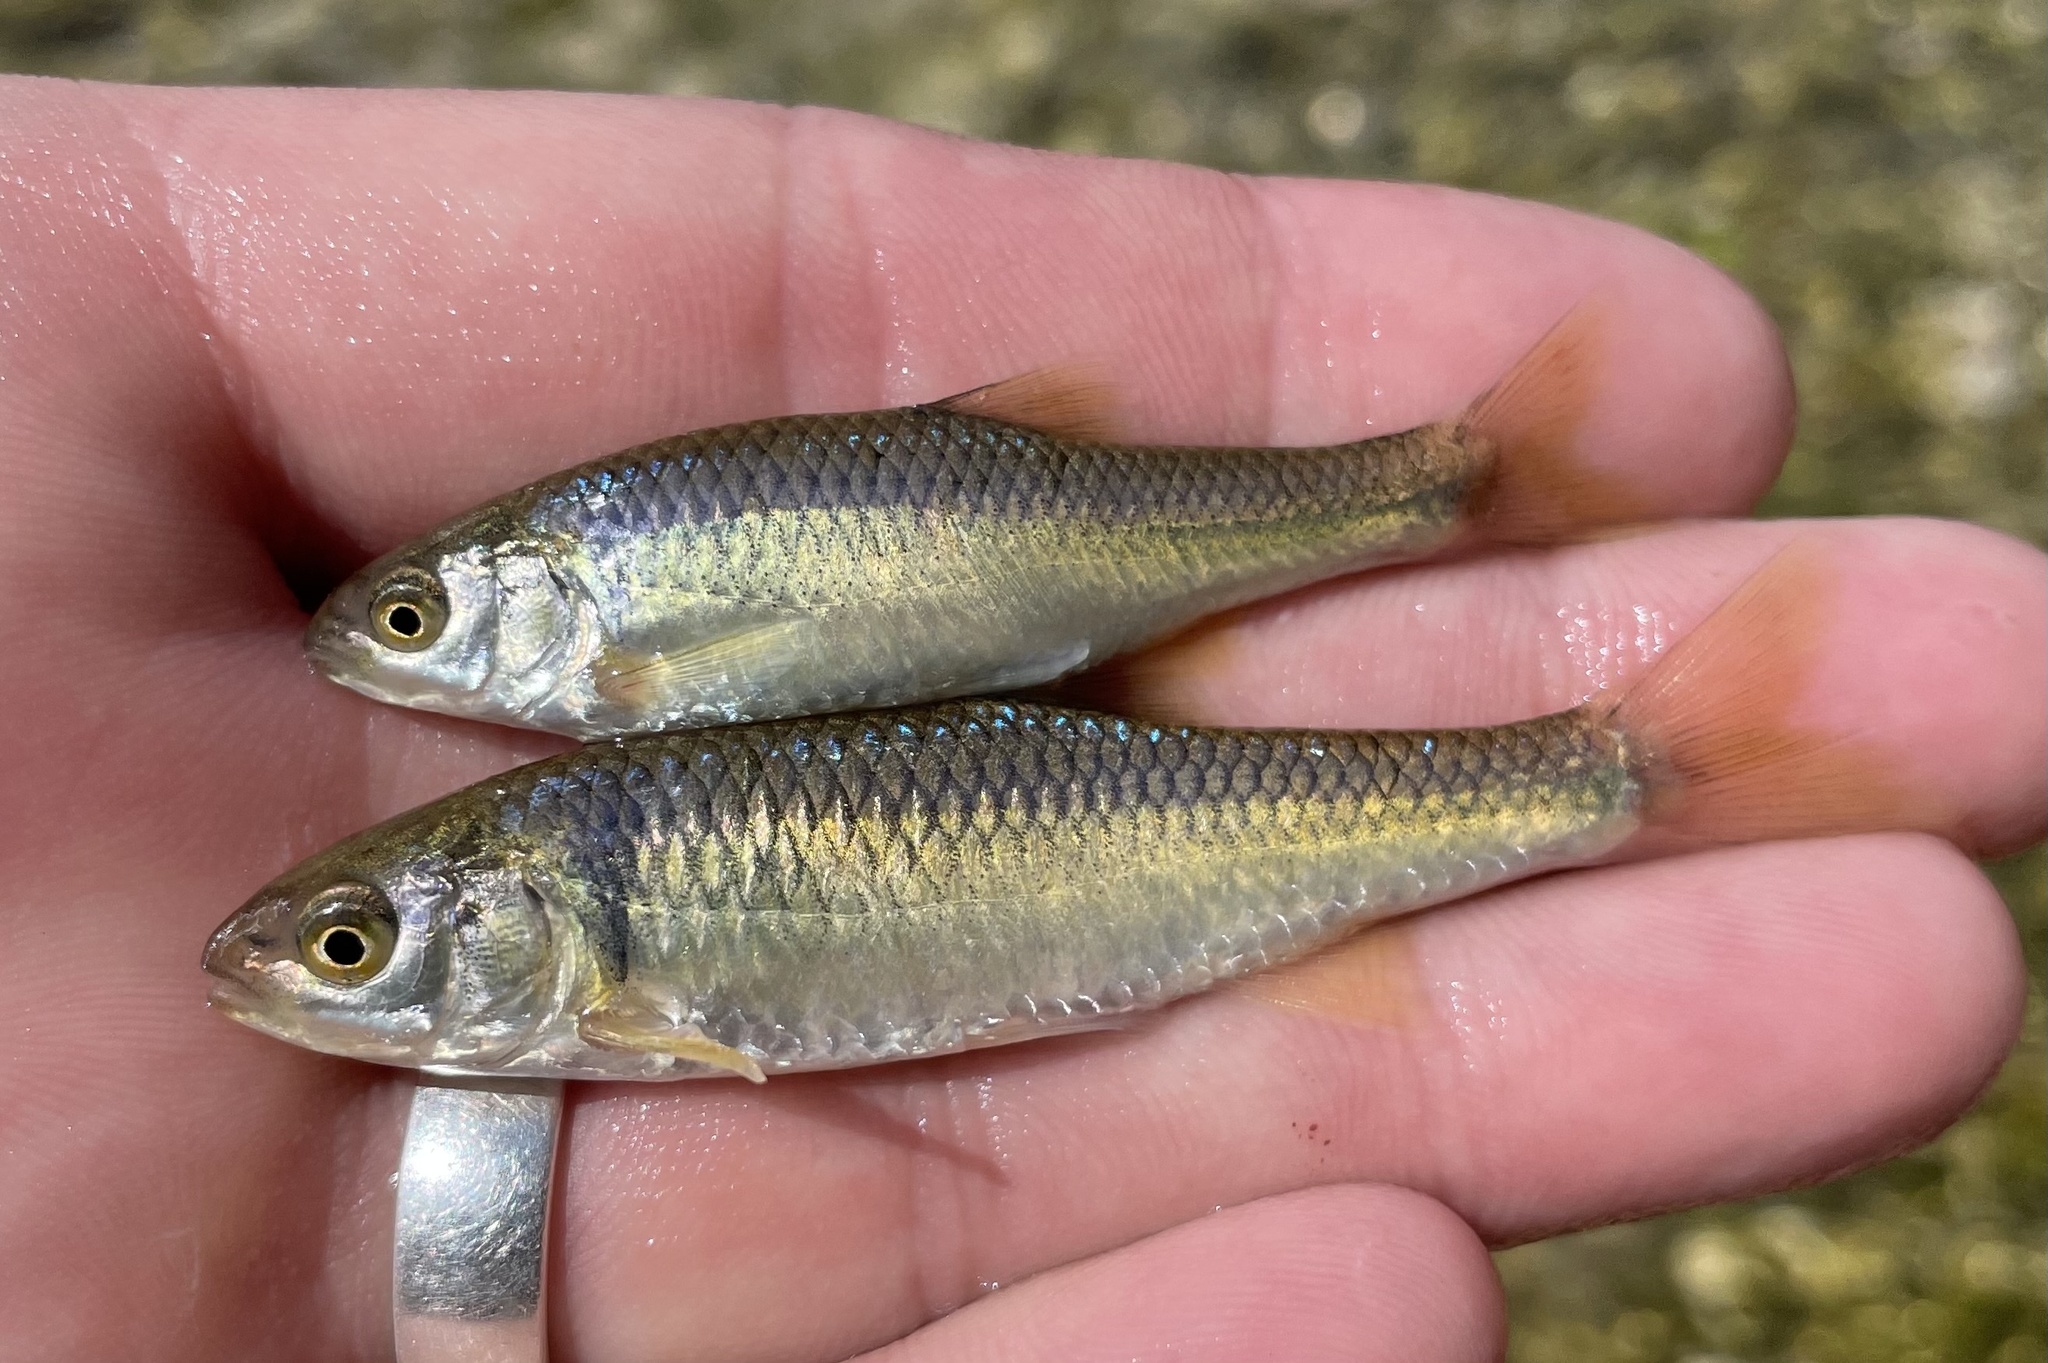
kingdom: Animalia
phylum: Chordata
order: Cypriniformes
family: Cyprinidae
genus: Cyprinella
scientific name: Cyprinella lepida
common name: Plateau shiner
